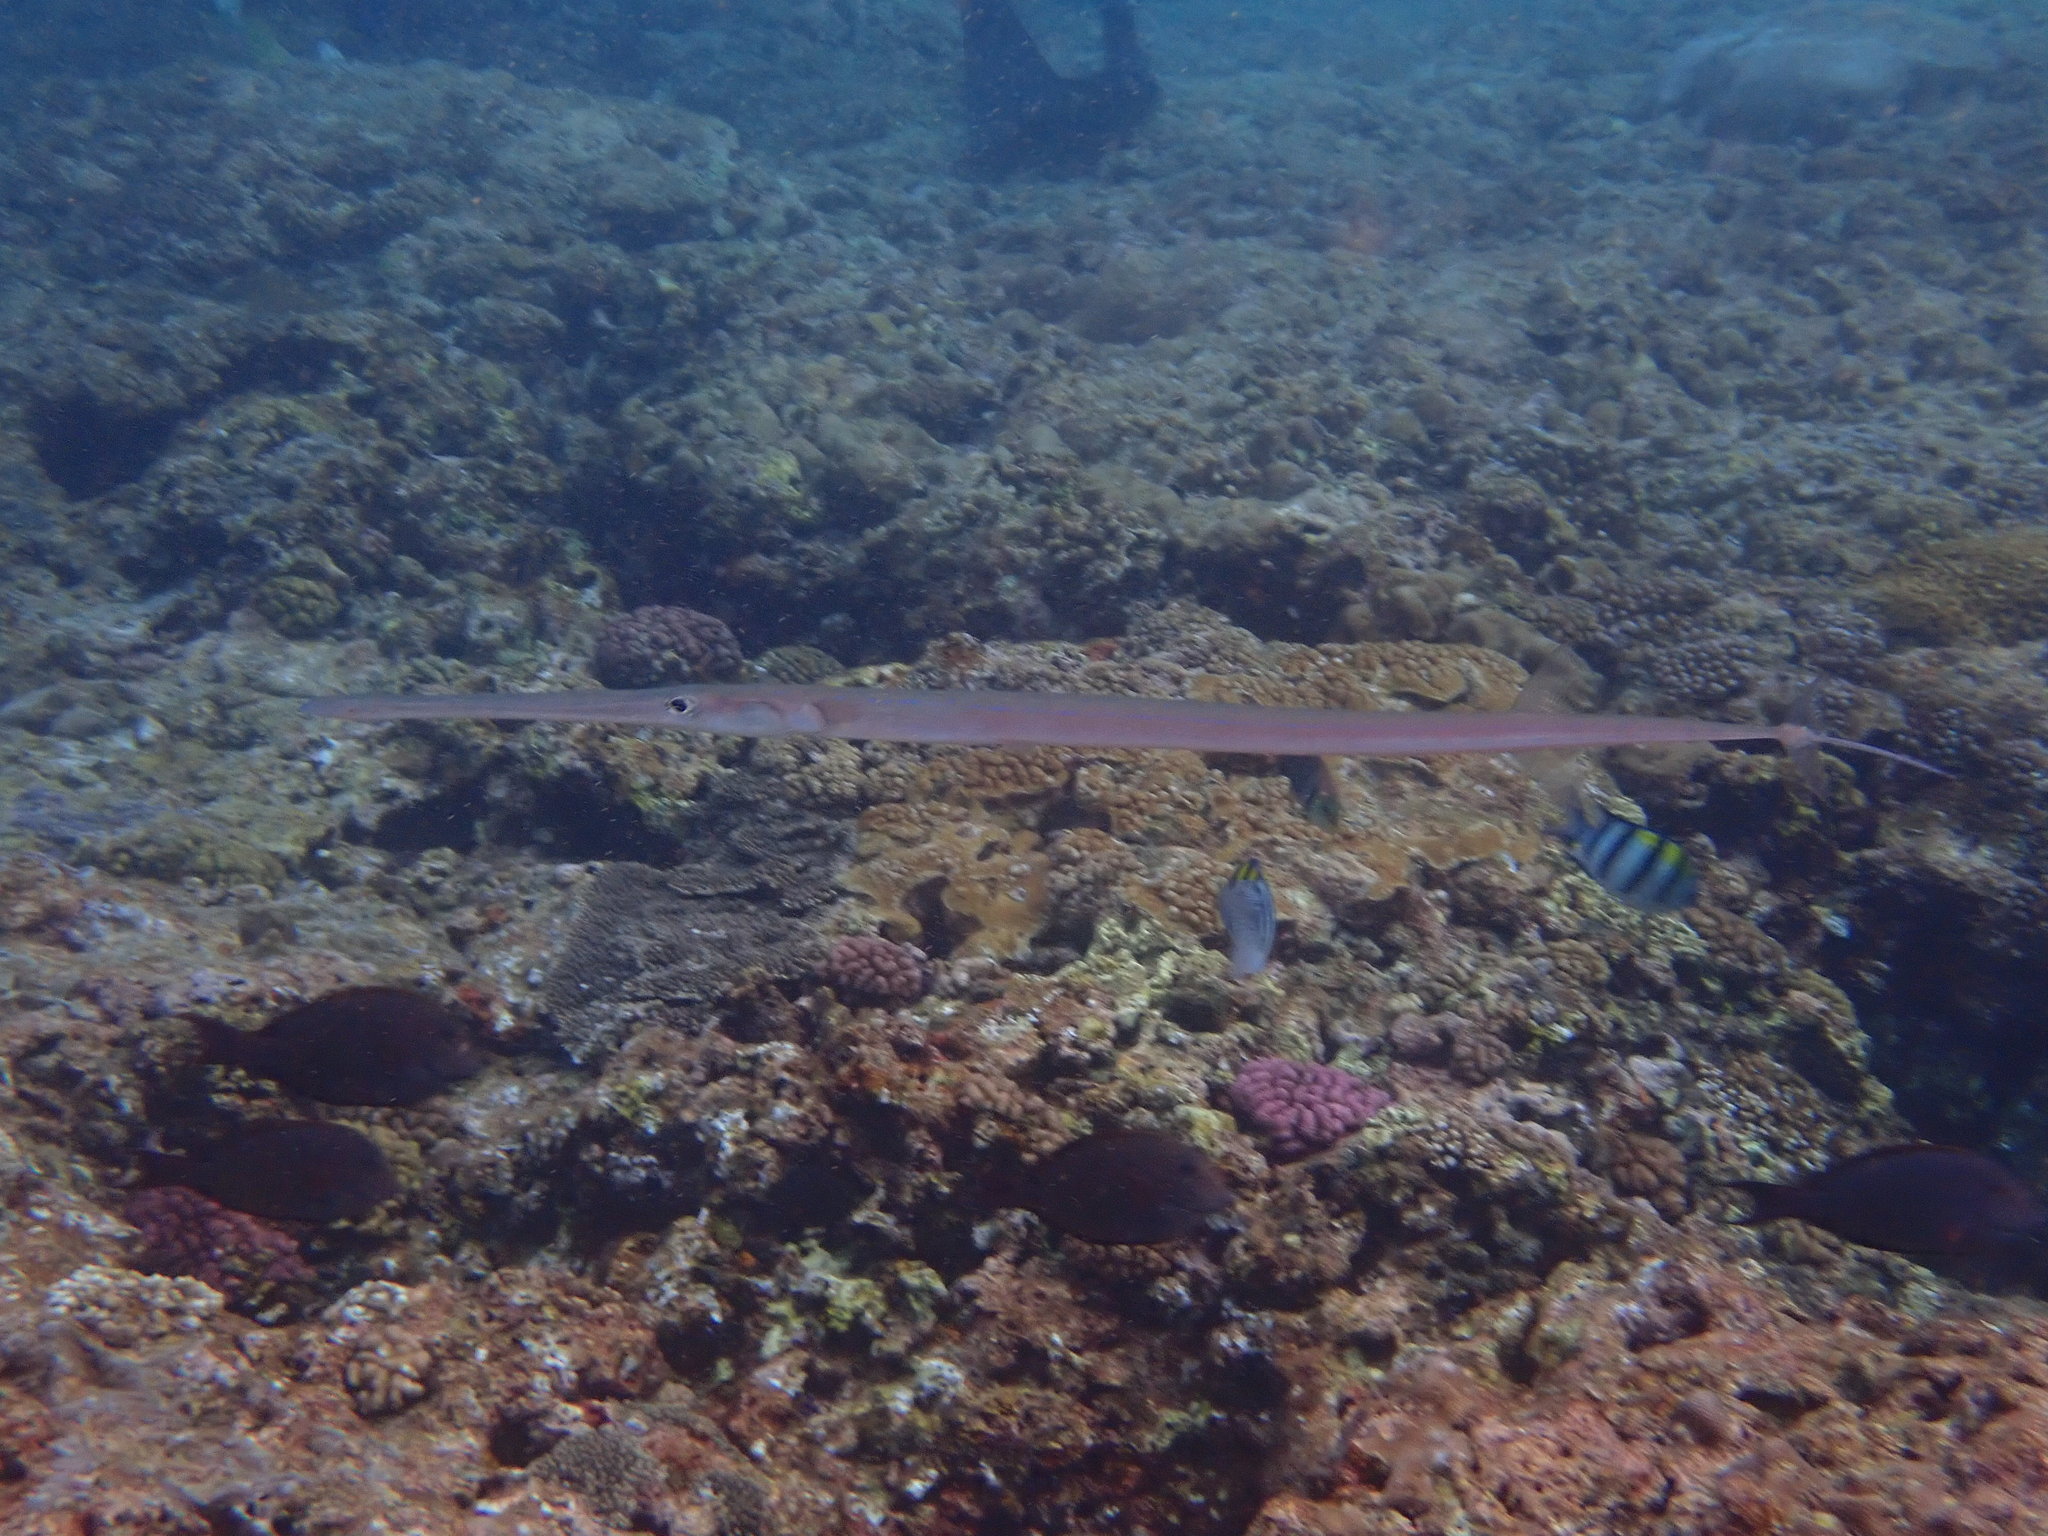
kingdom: Animalia
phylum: Chordata
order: Syngnathiformes
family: Fistulariidae
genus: Fistularia
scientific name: Fistularia commersonii
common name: Bluespotted cornetfish
